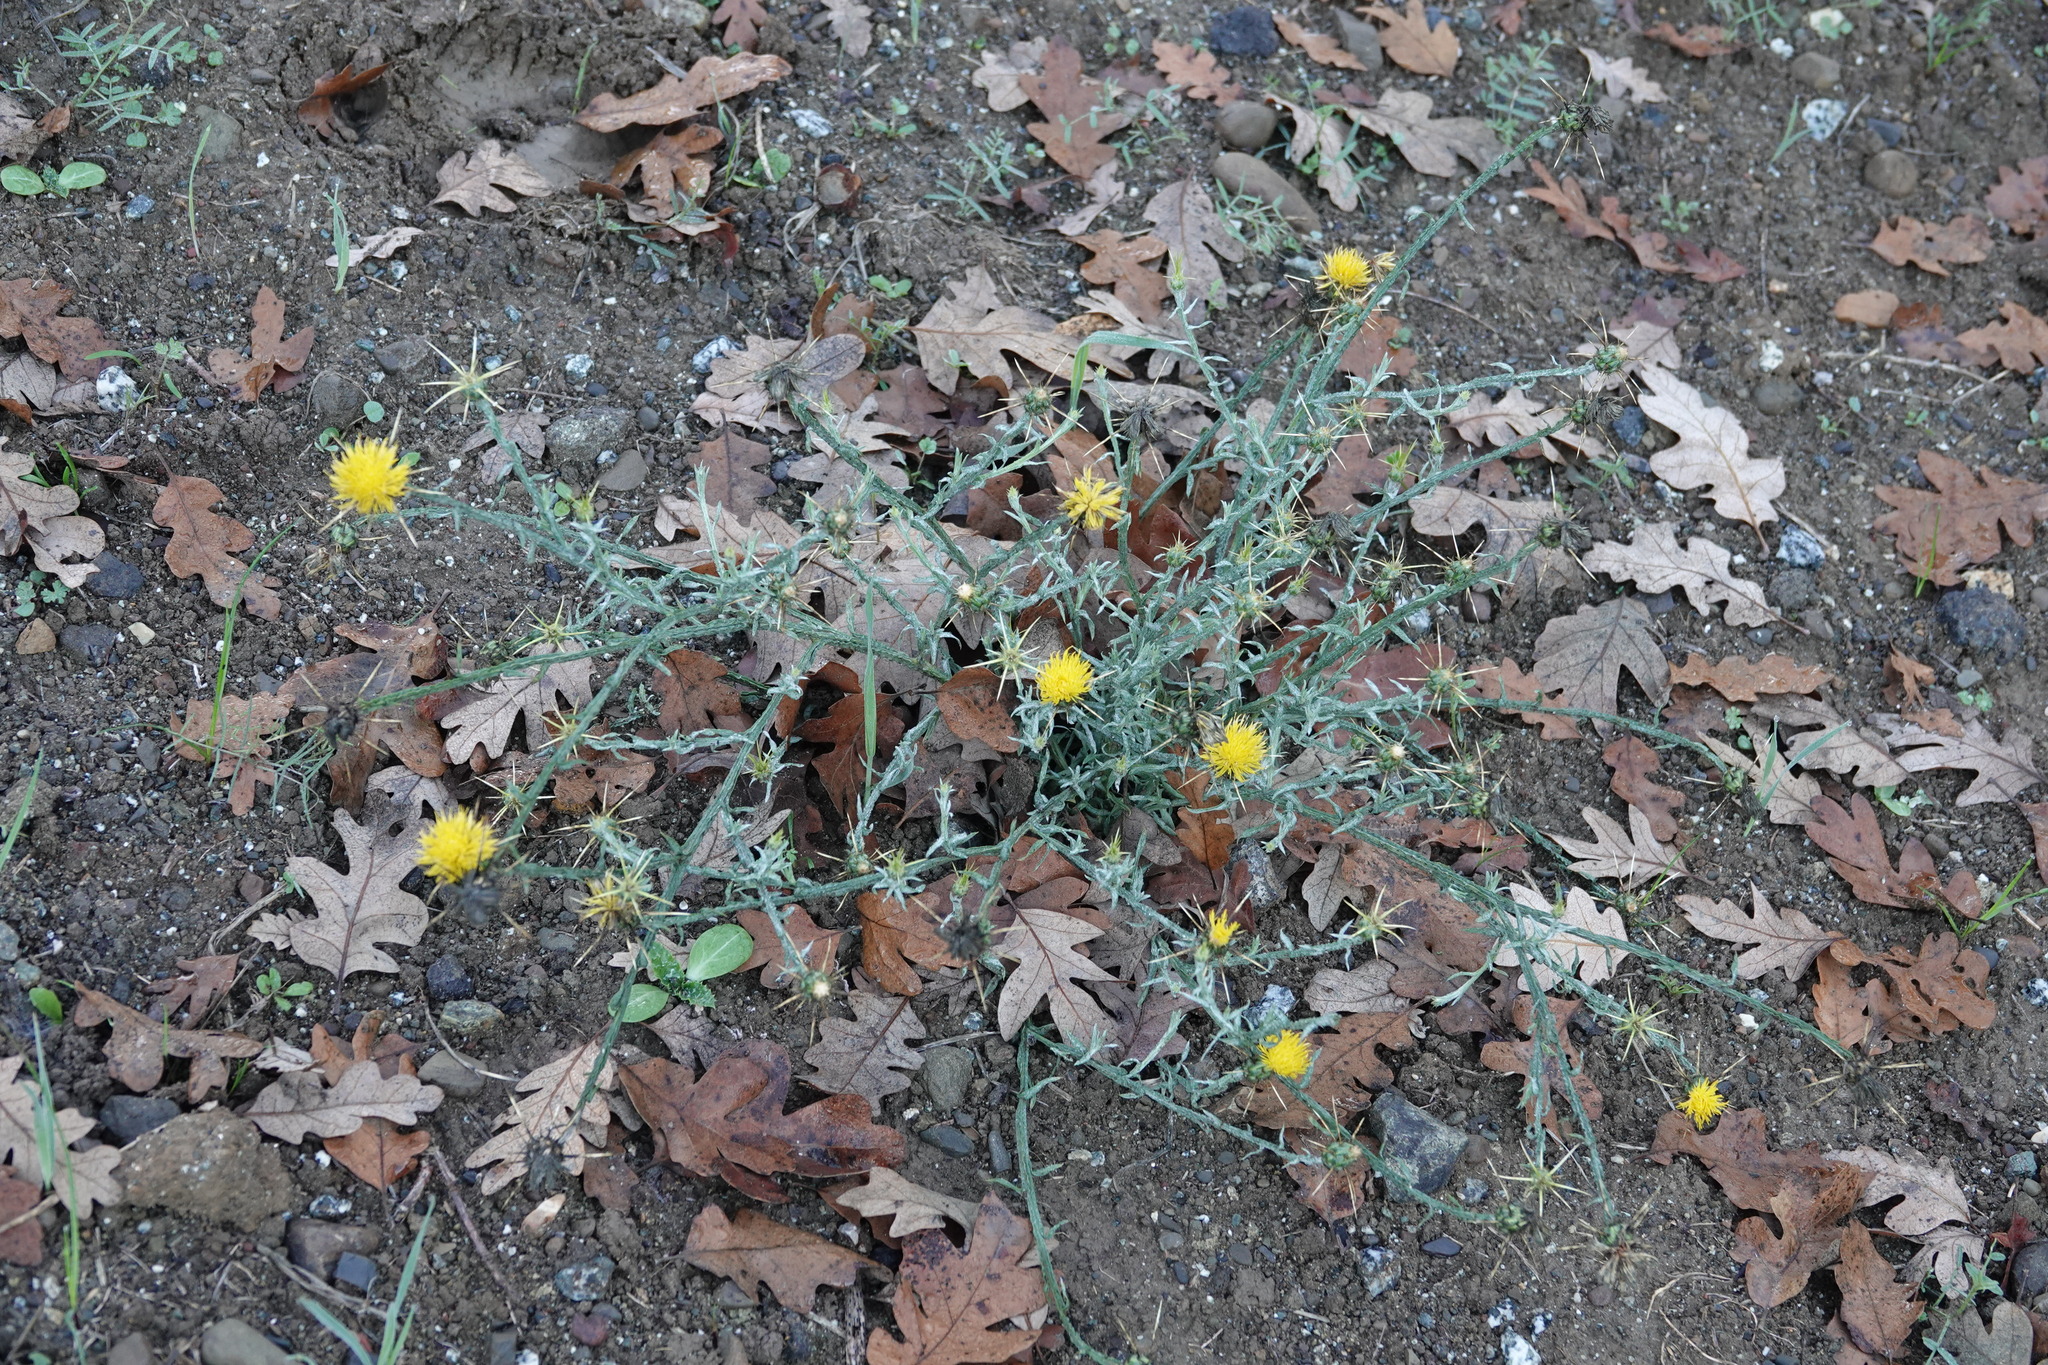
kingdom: Plantae
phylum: Tracheophyta
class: Magnoliopsida
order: Asterales
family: Asteraceae
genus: Centaurea
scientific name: Centaurea solstitialis
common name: Yellow star-thistle
